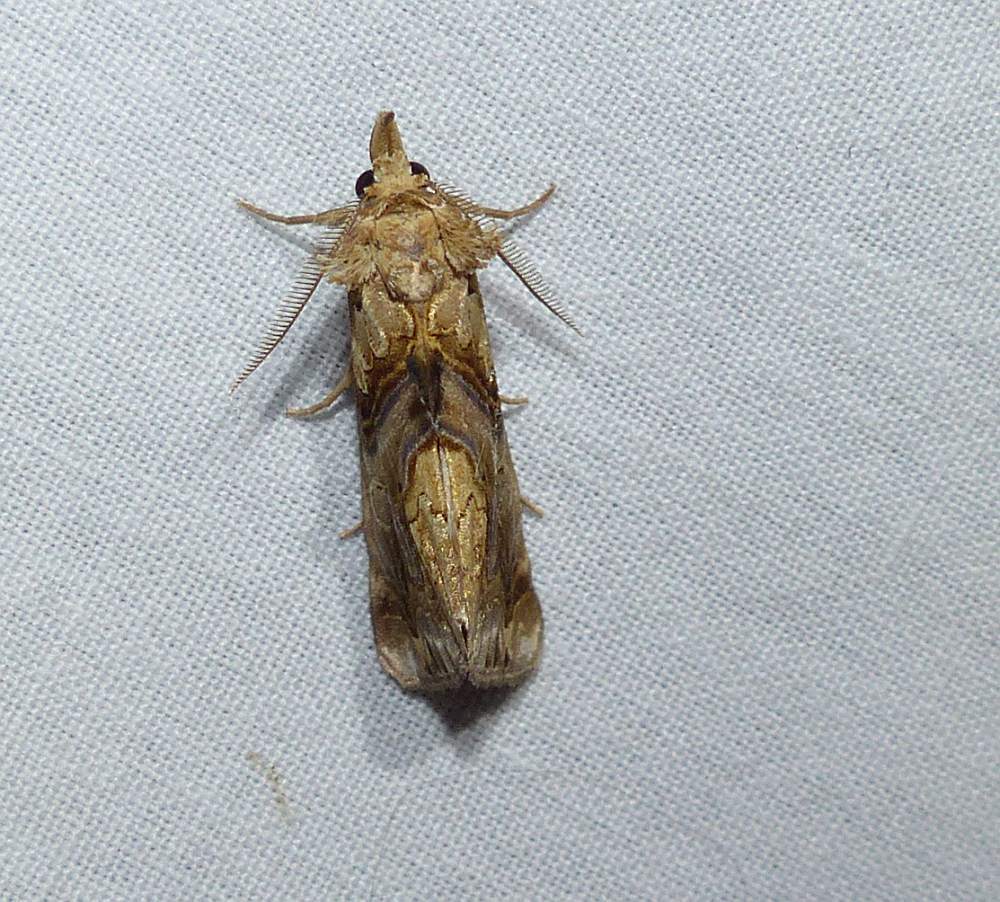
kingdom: Animalia
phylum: Arthropoda
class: Insecta
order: Lepidoptera
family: Erebidae
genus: Plusiodonta
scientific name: Plusiodonta compressipalpis
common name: Moonseed moth
